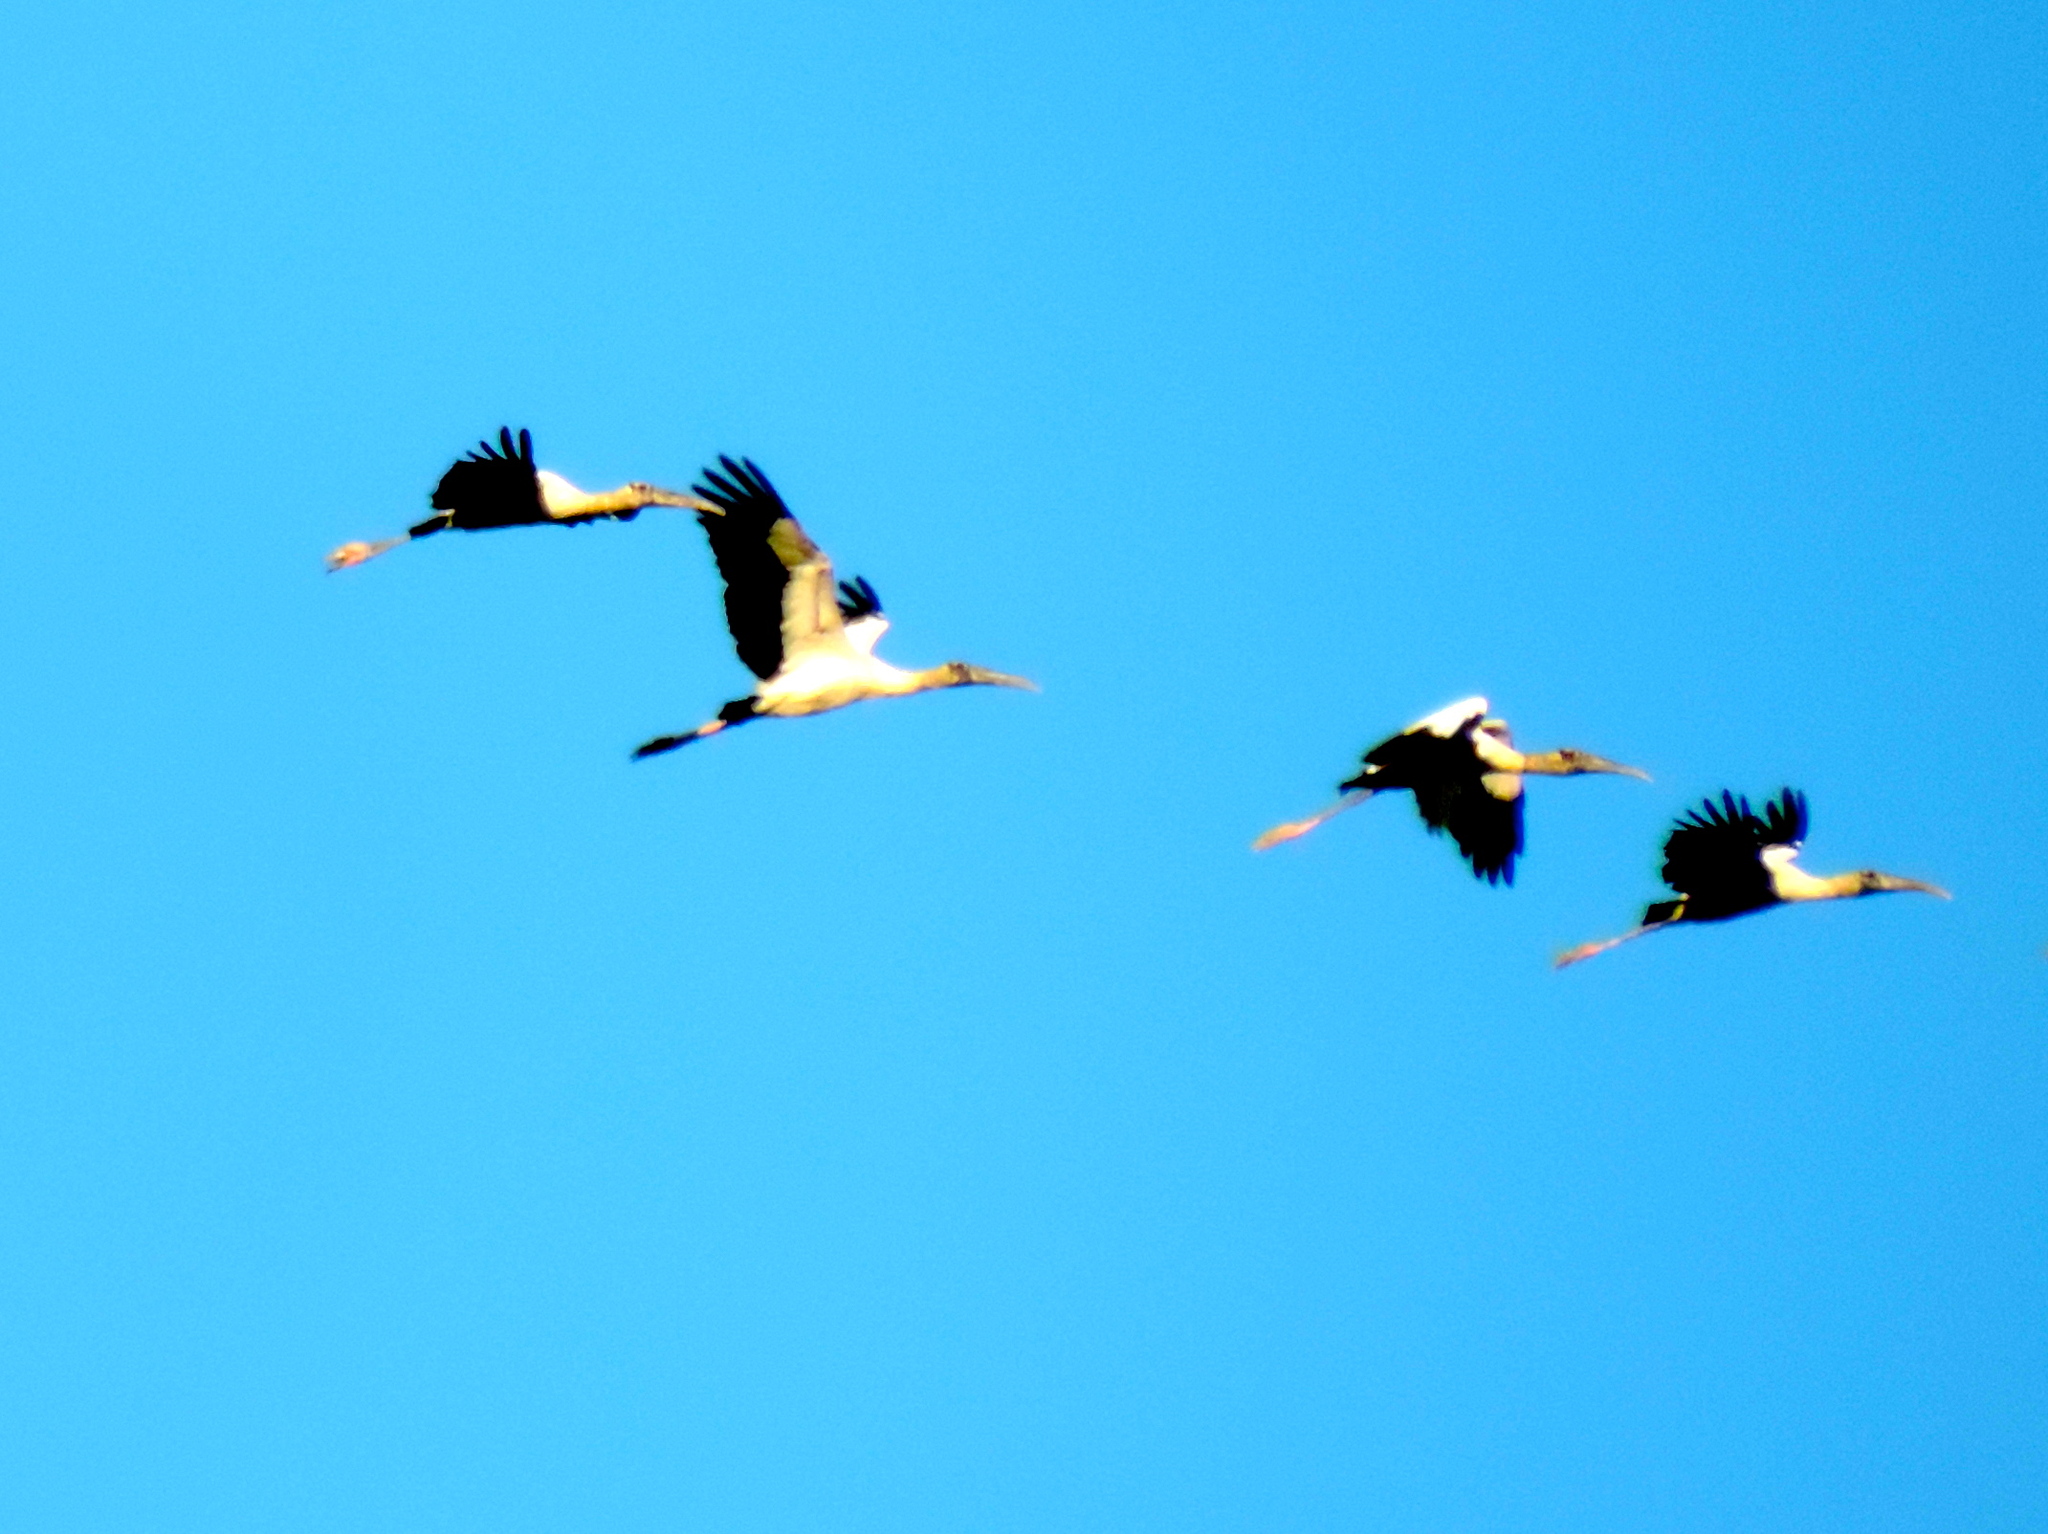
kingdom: Animalia
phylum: Chordata
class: Aves
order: Ciconiiformes
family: Ciconiidae
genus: Mycteria
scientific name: Mycteria americana
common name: Wood stork
